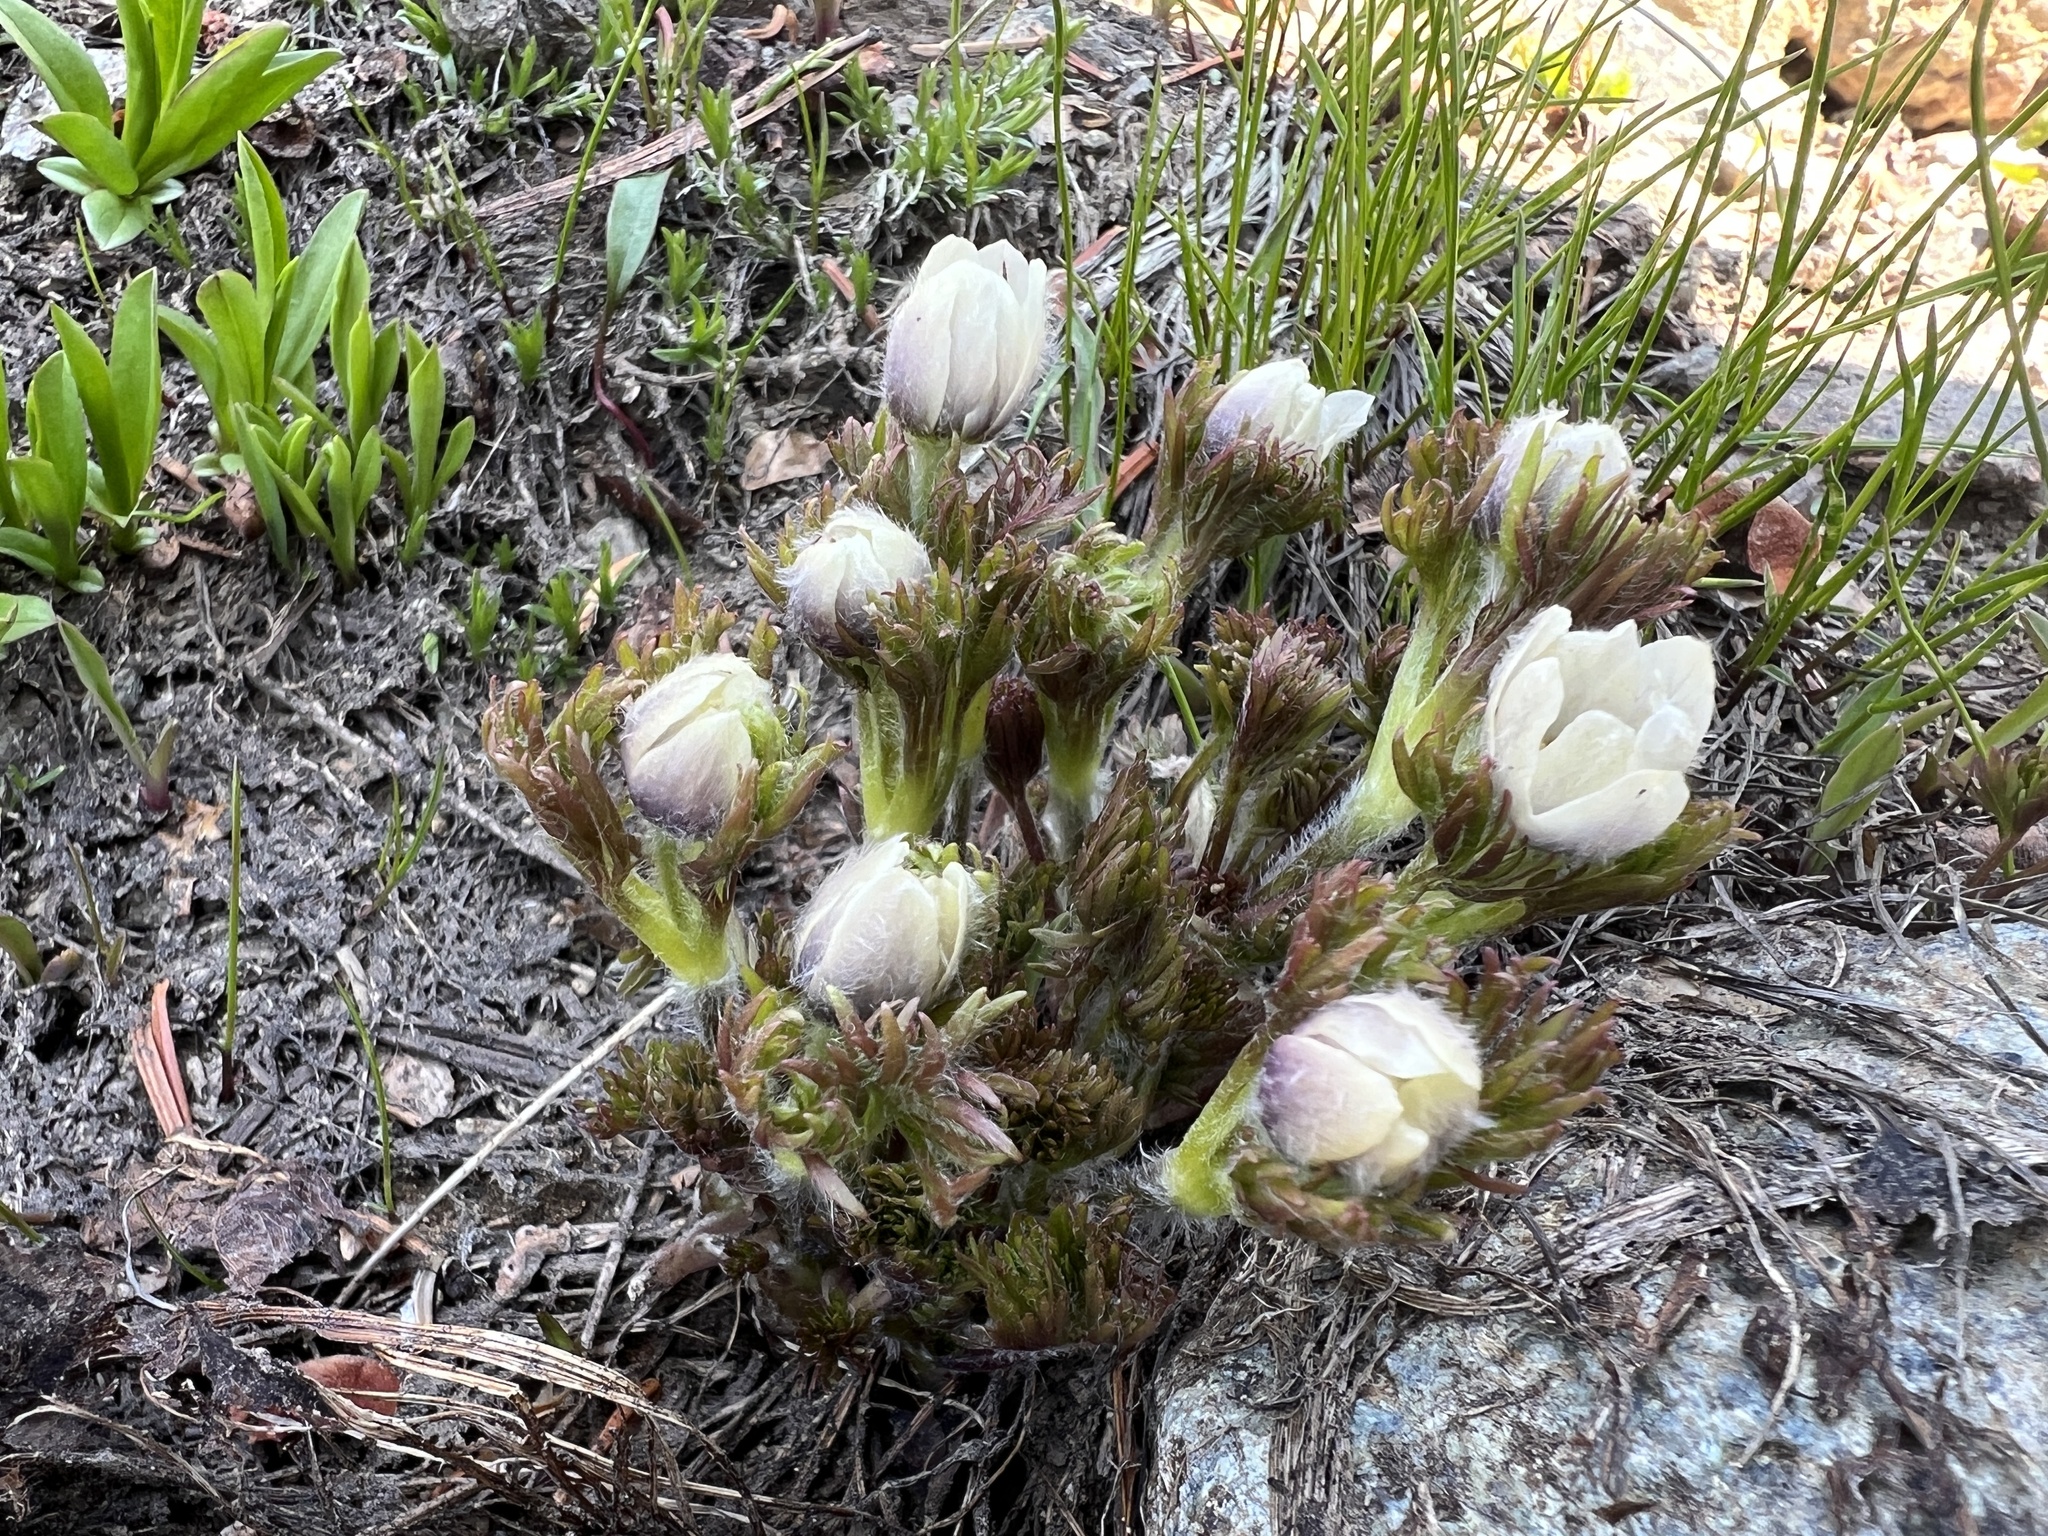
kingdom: Plantae
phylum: Tracheophyta
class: Magnoliopsida
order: Ranunculales
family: Ranunculaceae
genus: Anemone
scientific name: Anemone drummondii
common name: Drummond's anemone
